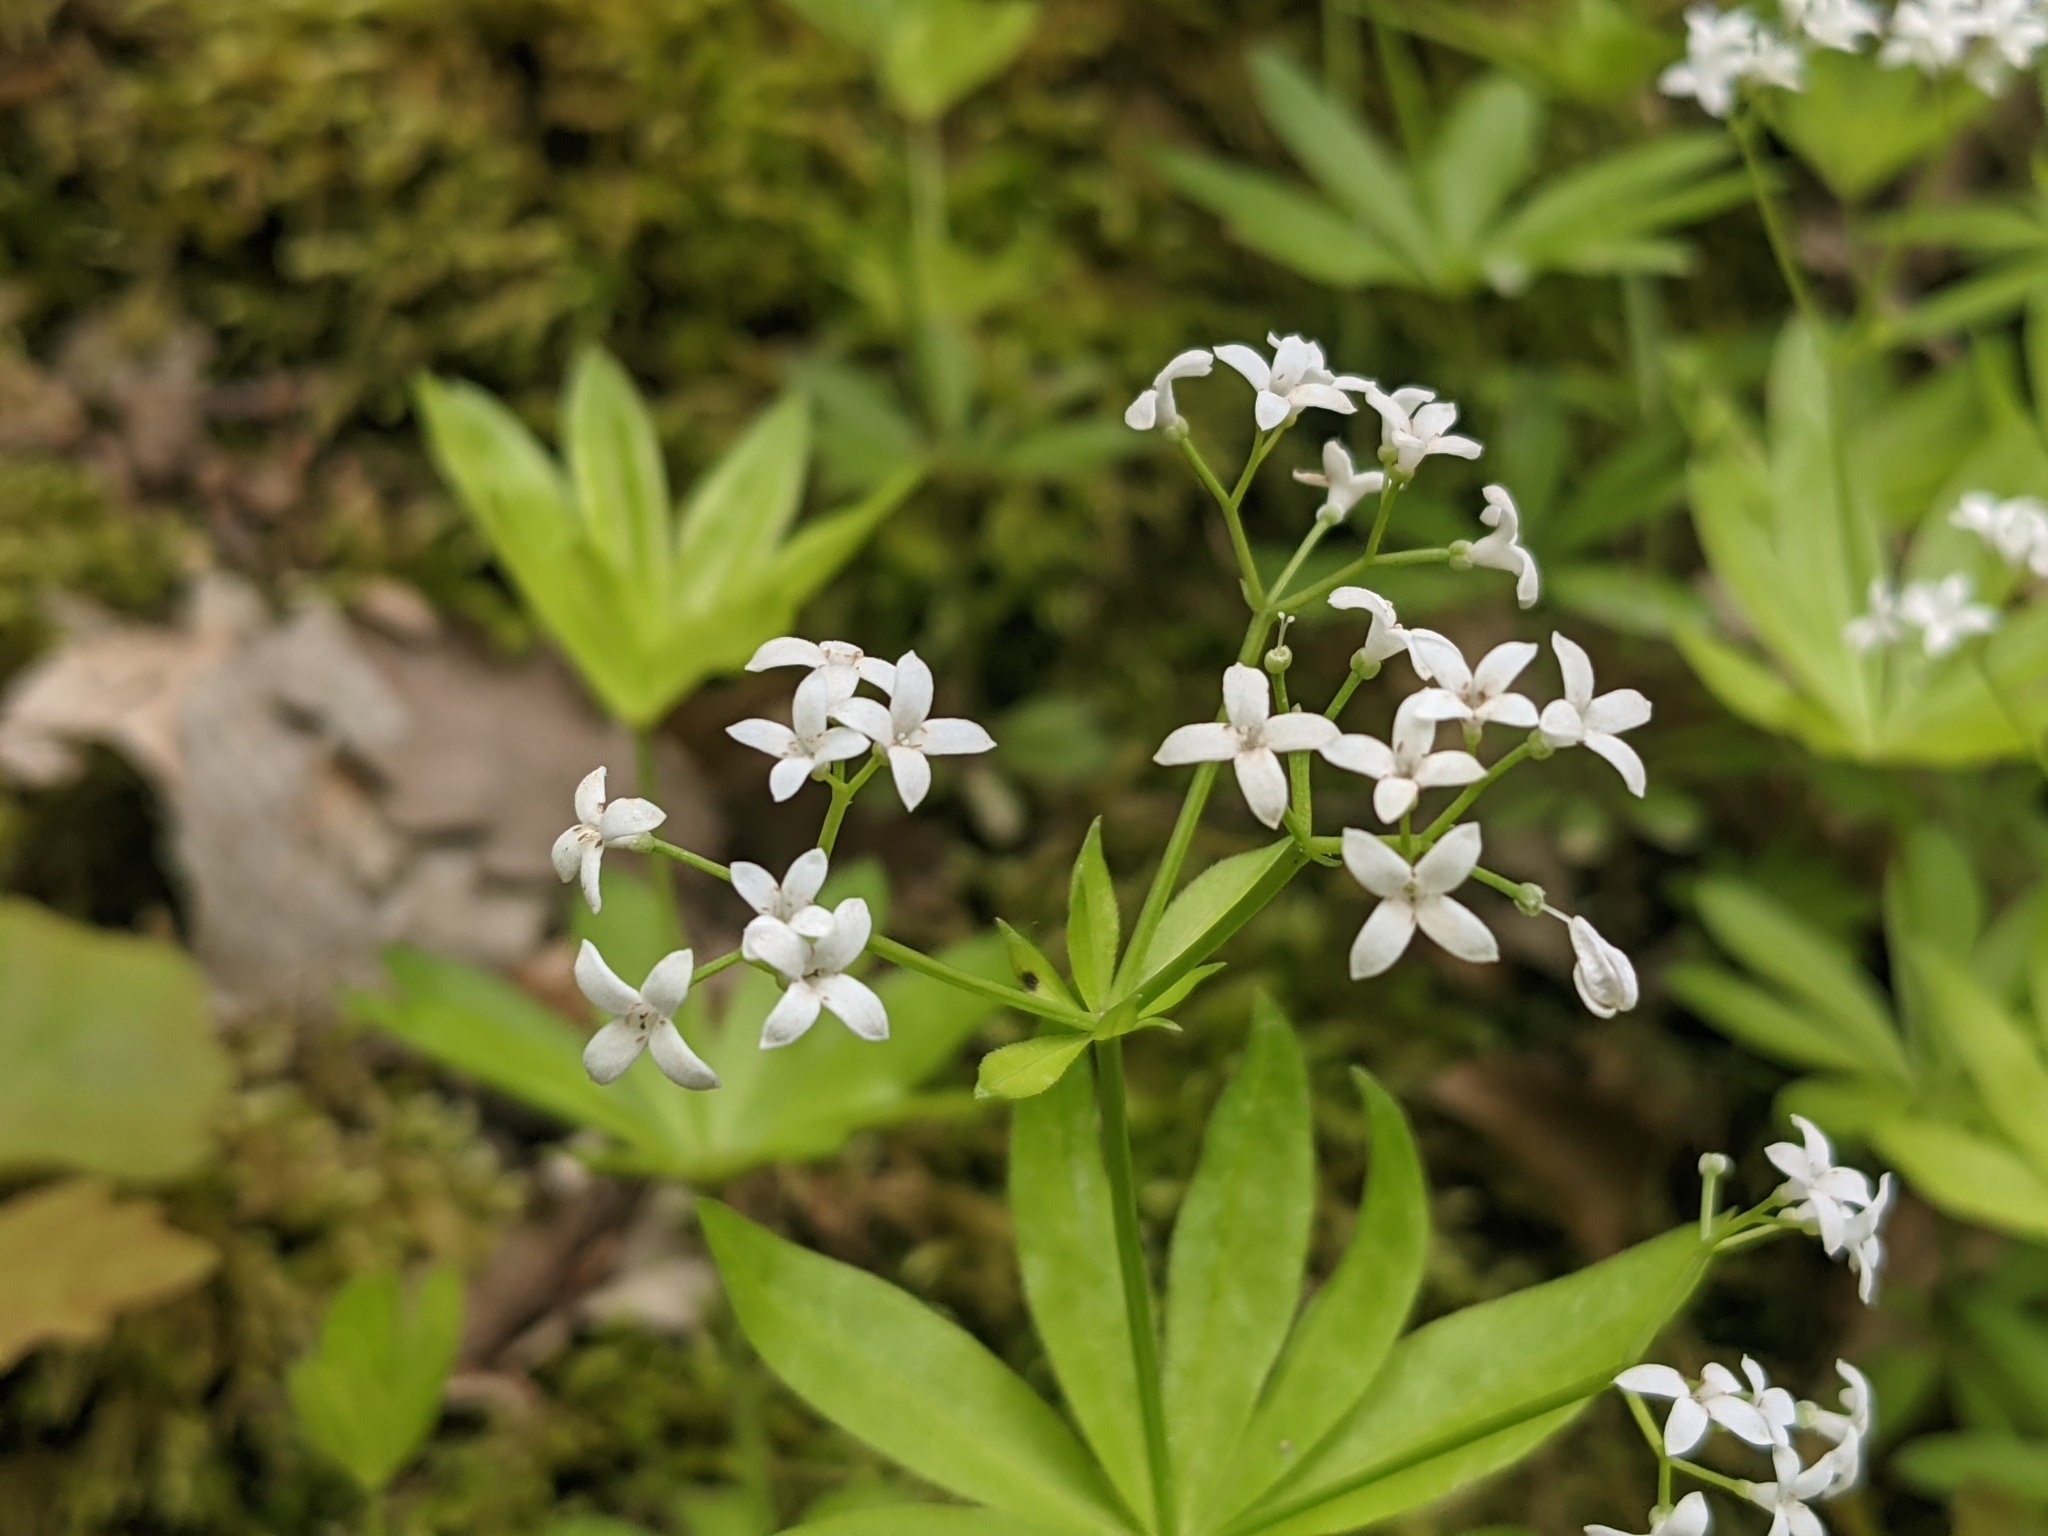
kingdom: Plantae
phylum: Tracheophyta
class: Magnoliopsida
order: Gentianales
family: Rubiaceae
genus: Galium
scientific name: Galium odoratum
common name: Sweet woodruff
